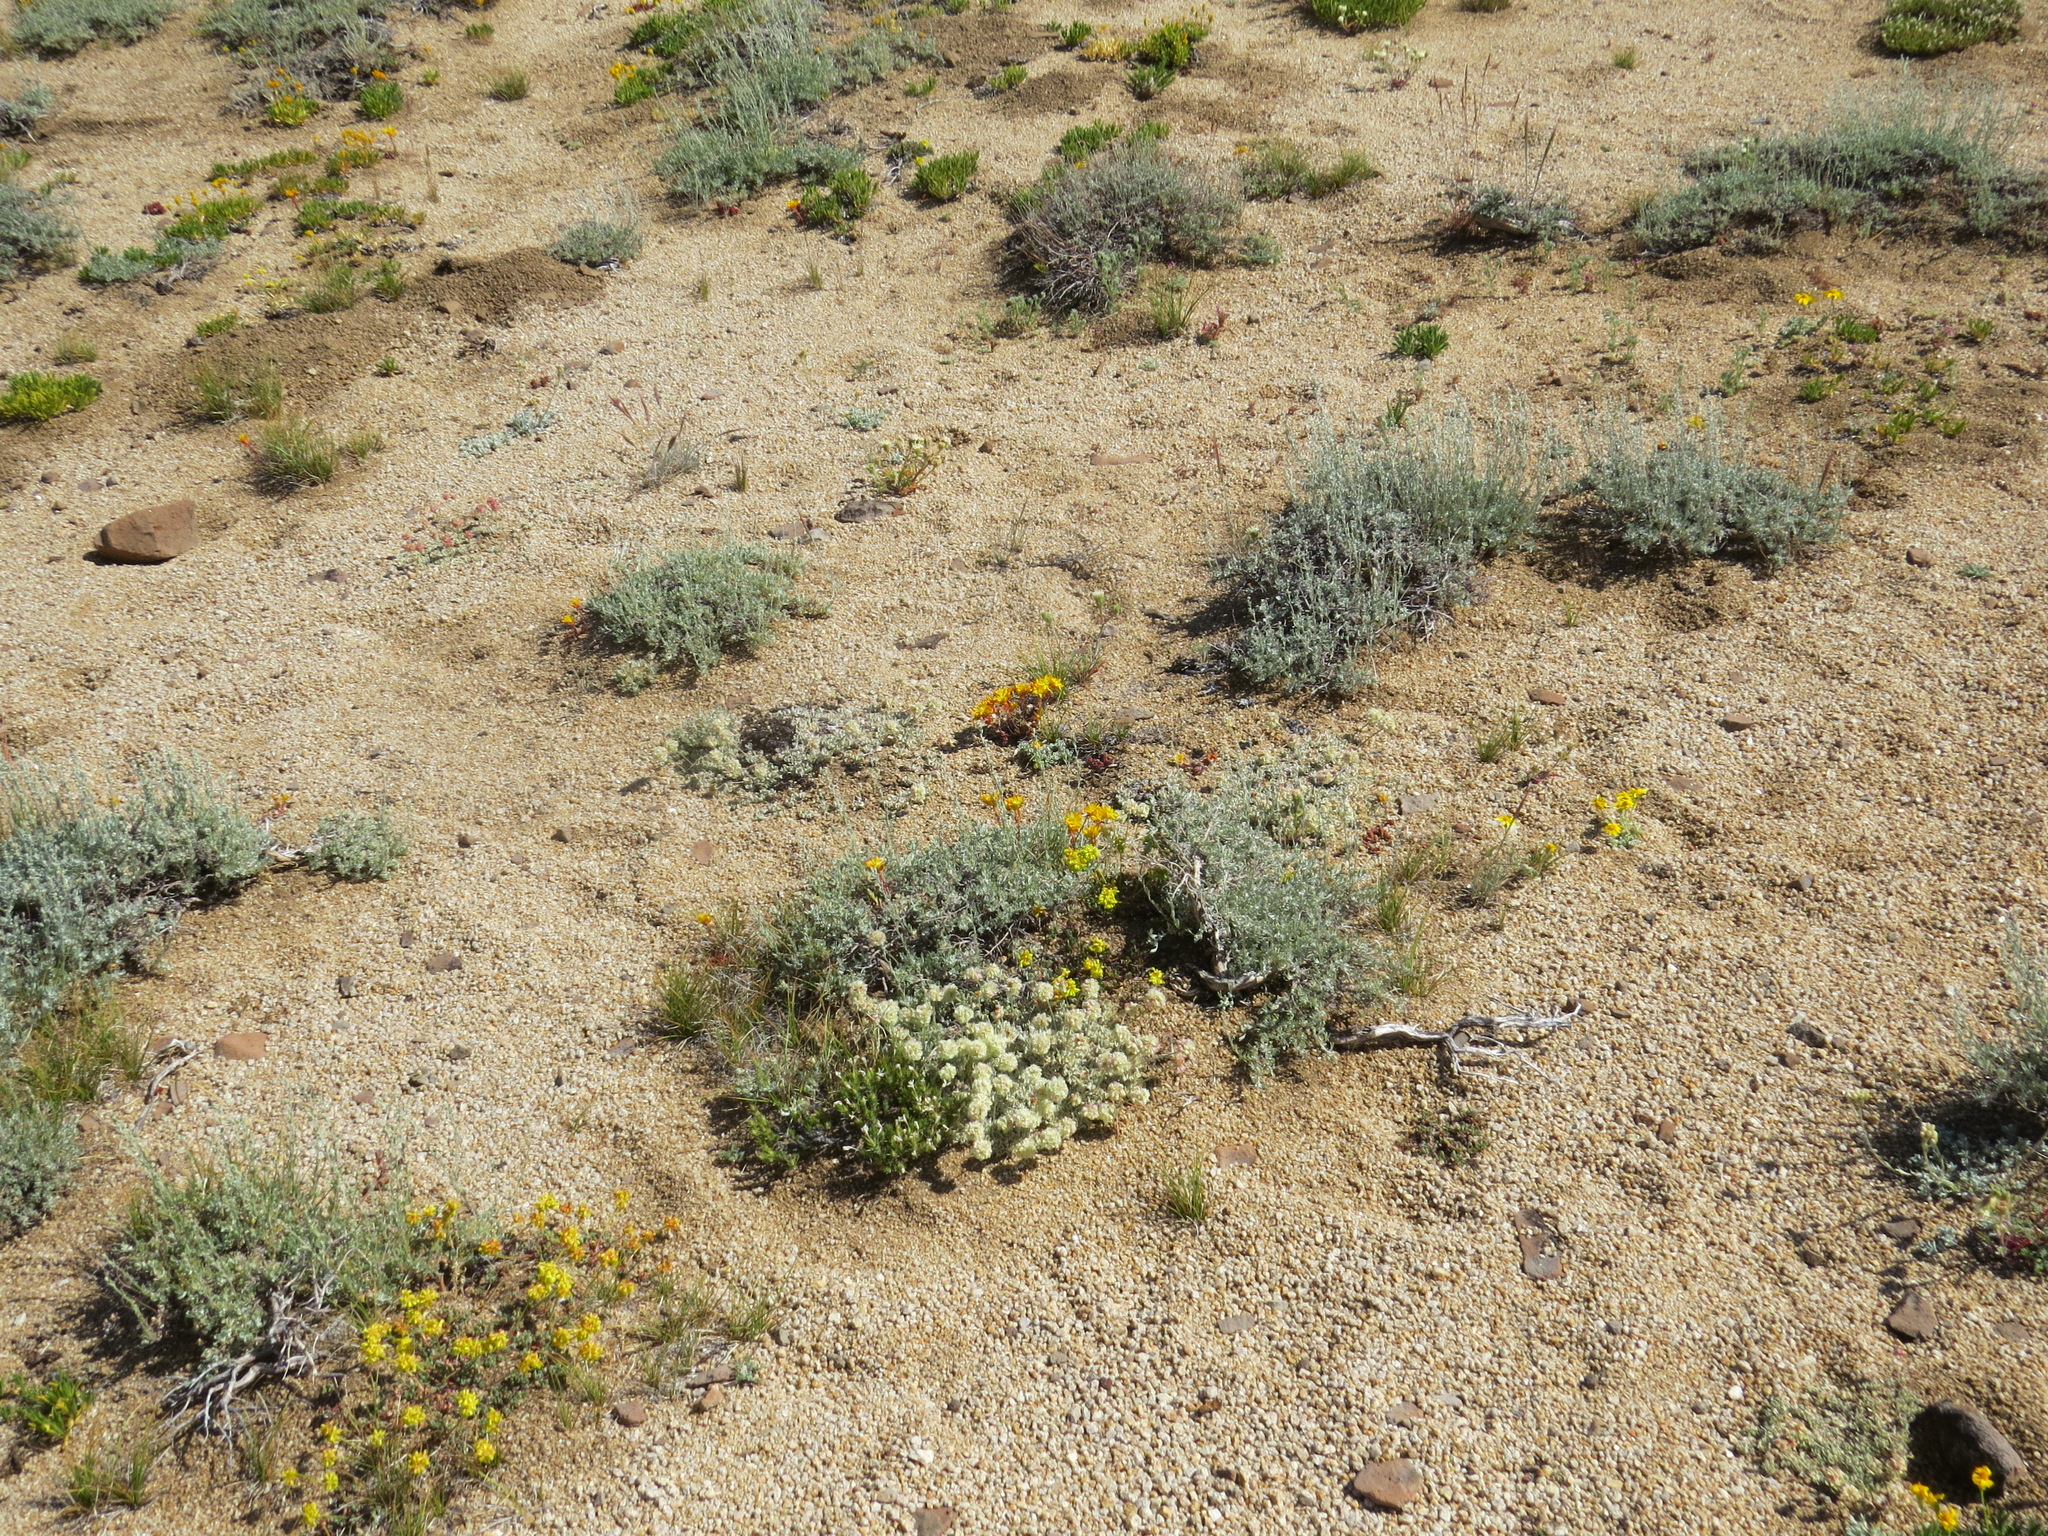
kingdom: Plantae
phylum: Tracheophyta
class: Magnoliopsida
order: Asterales
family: Asteraceae
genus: Chaenactis
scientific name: Chaenactis douglasii
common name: Hoary pincushion
